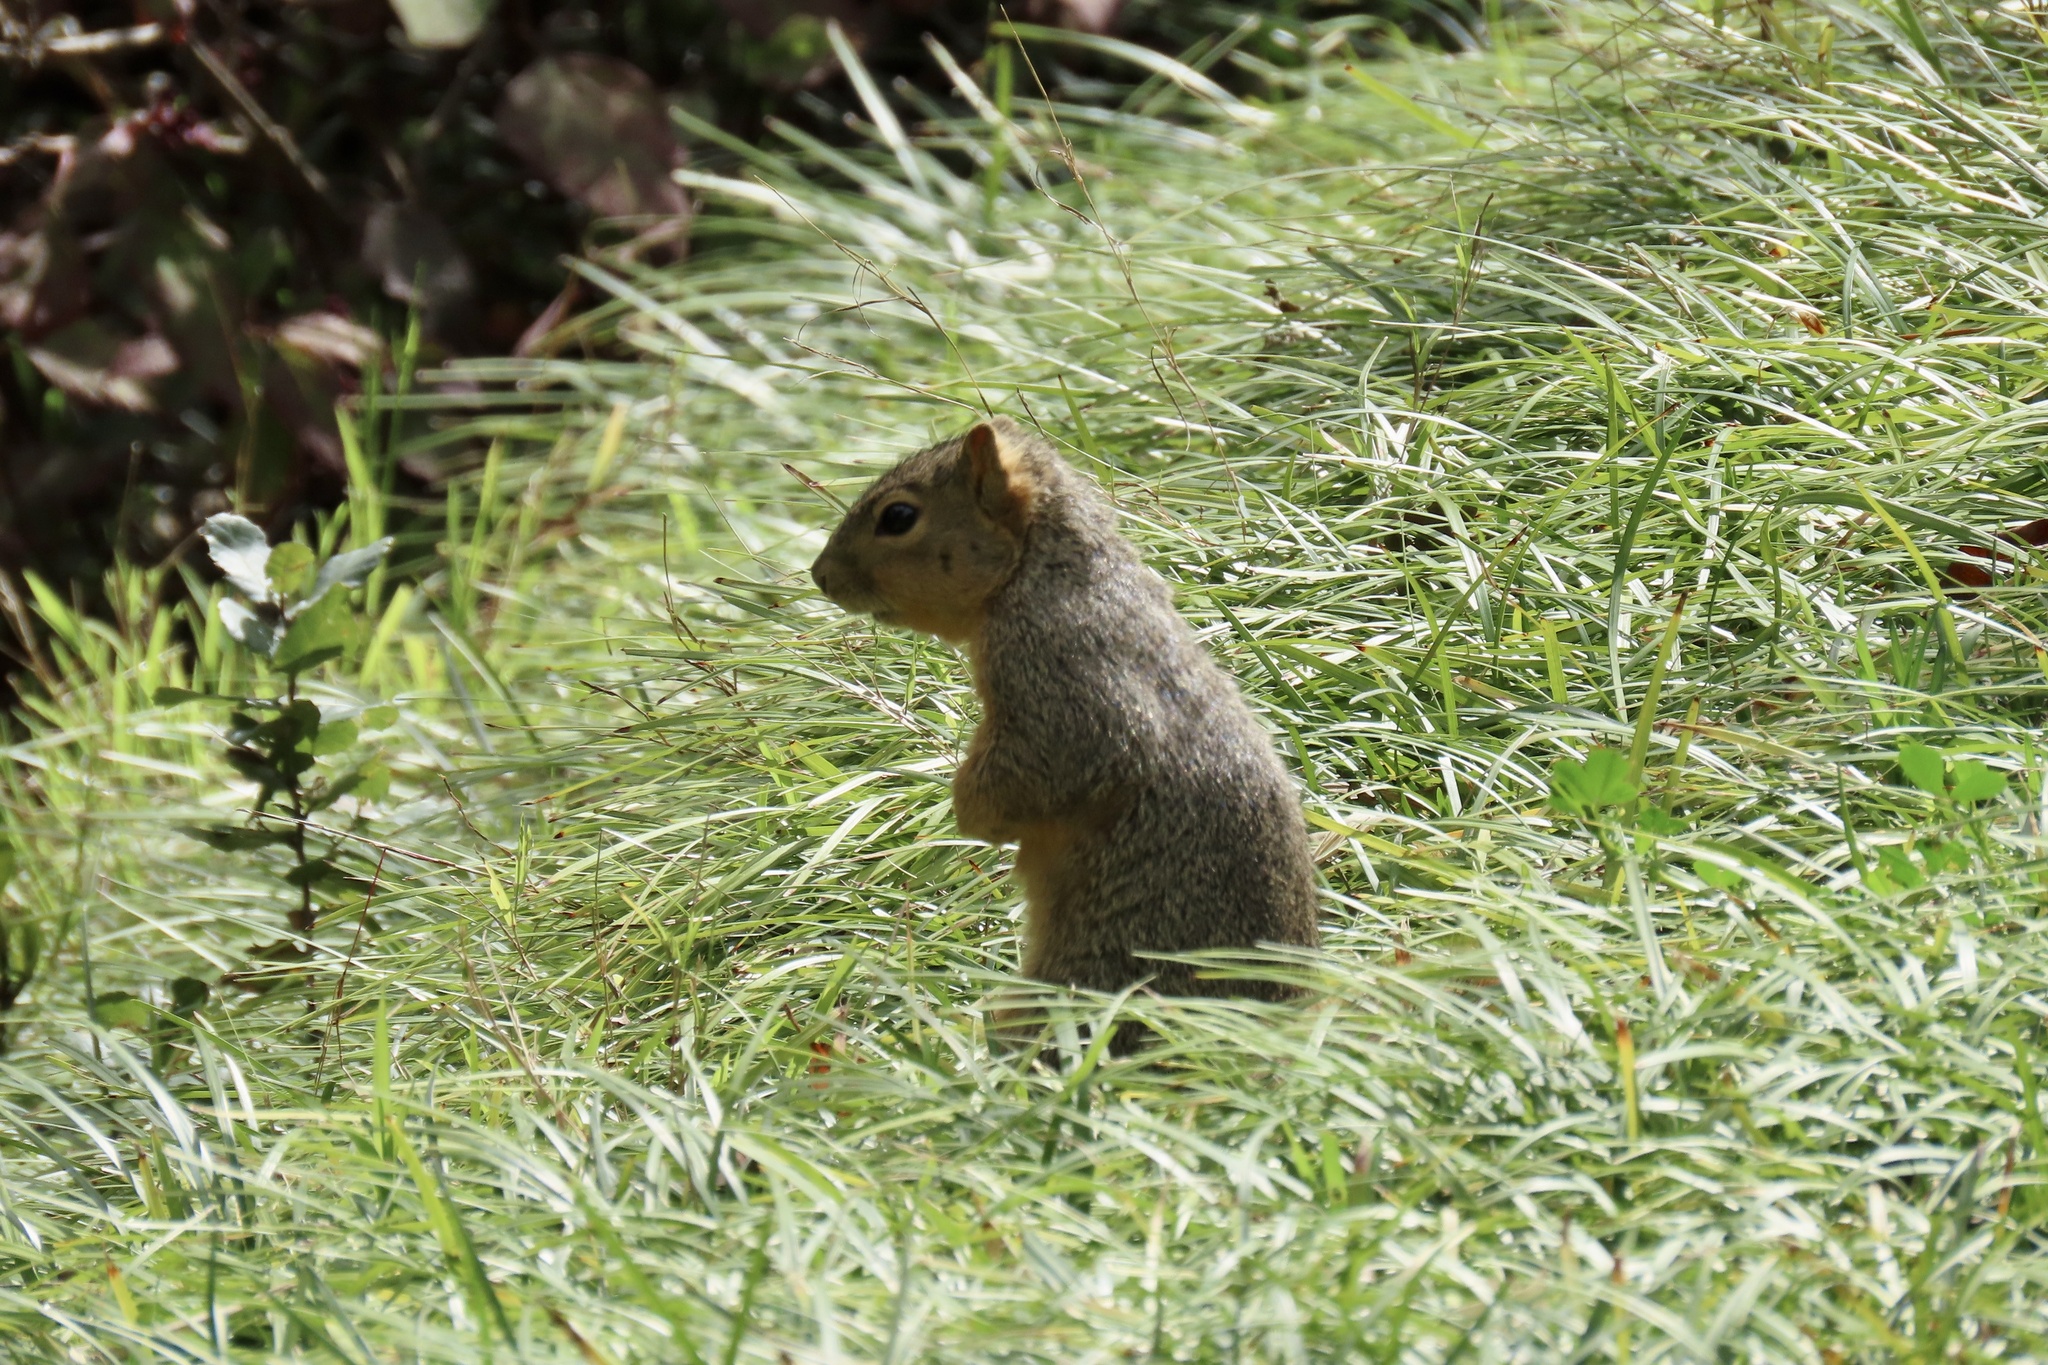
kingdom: Animalia
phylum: Chordata
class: Mammalia
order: Rodentia
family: Sciuridae
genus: Sciurus
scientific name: Sciurus niger
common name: Fox squirrel
